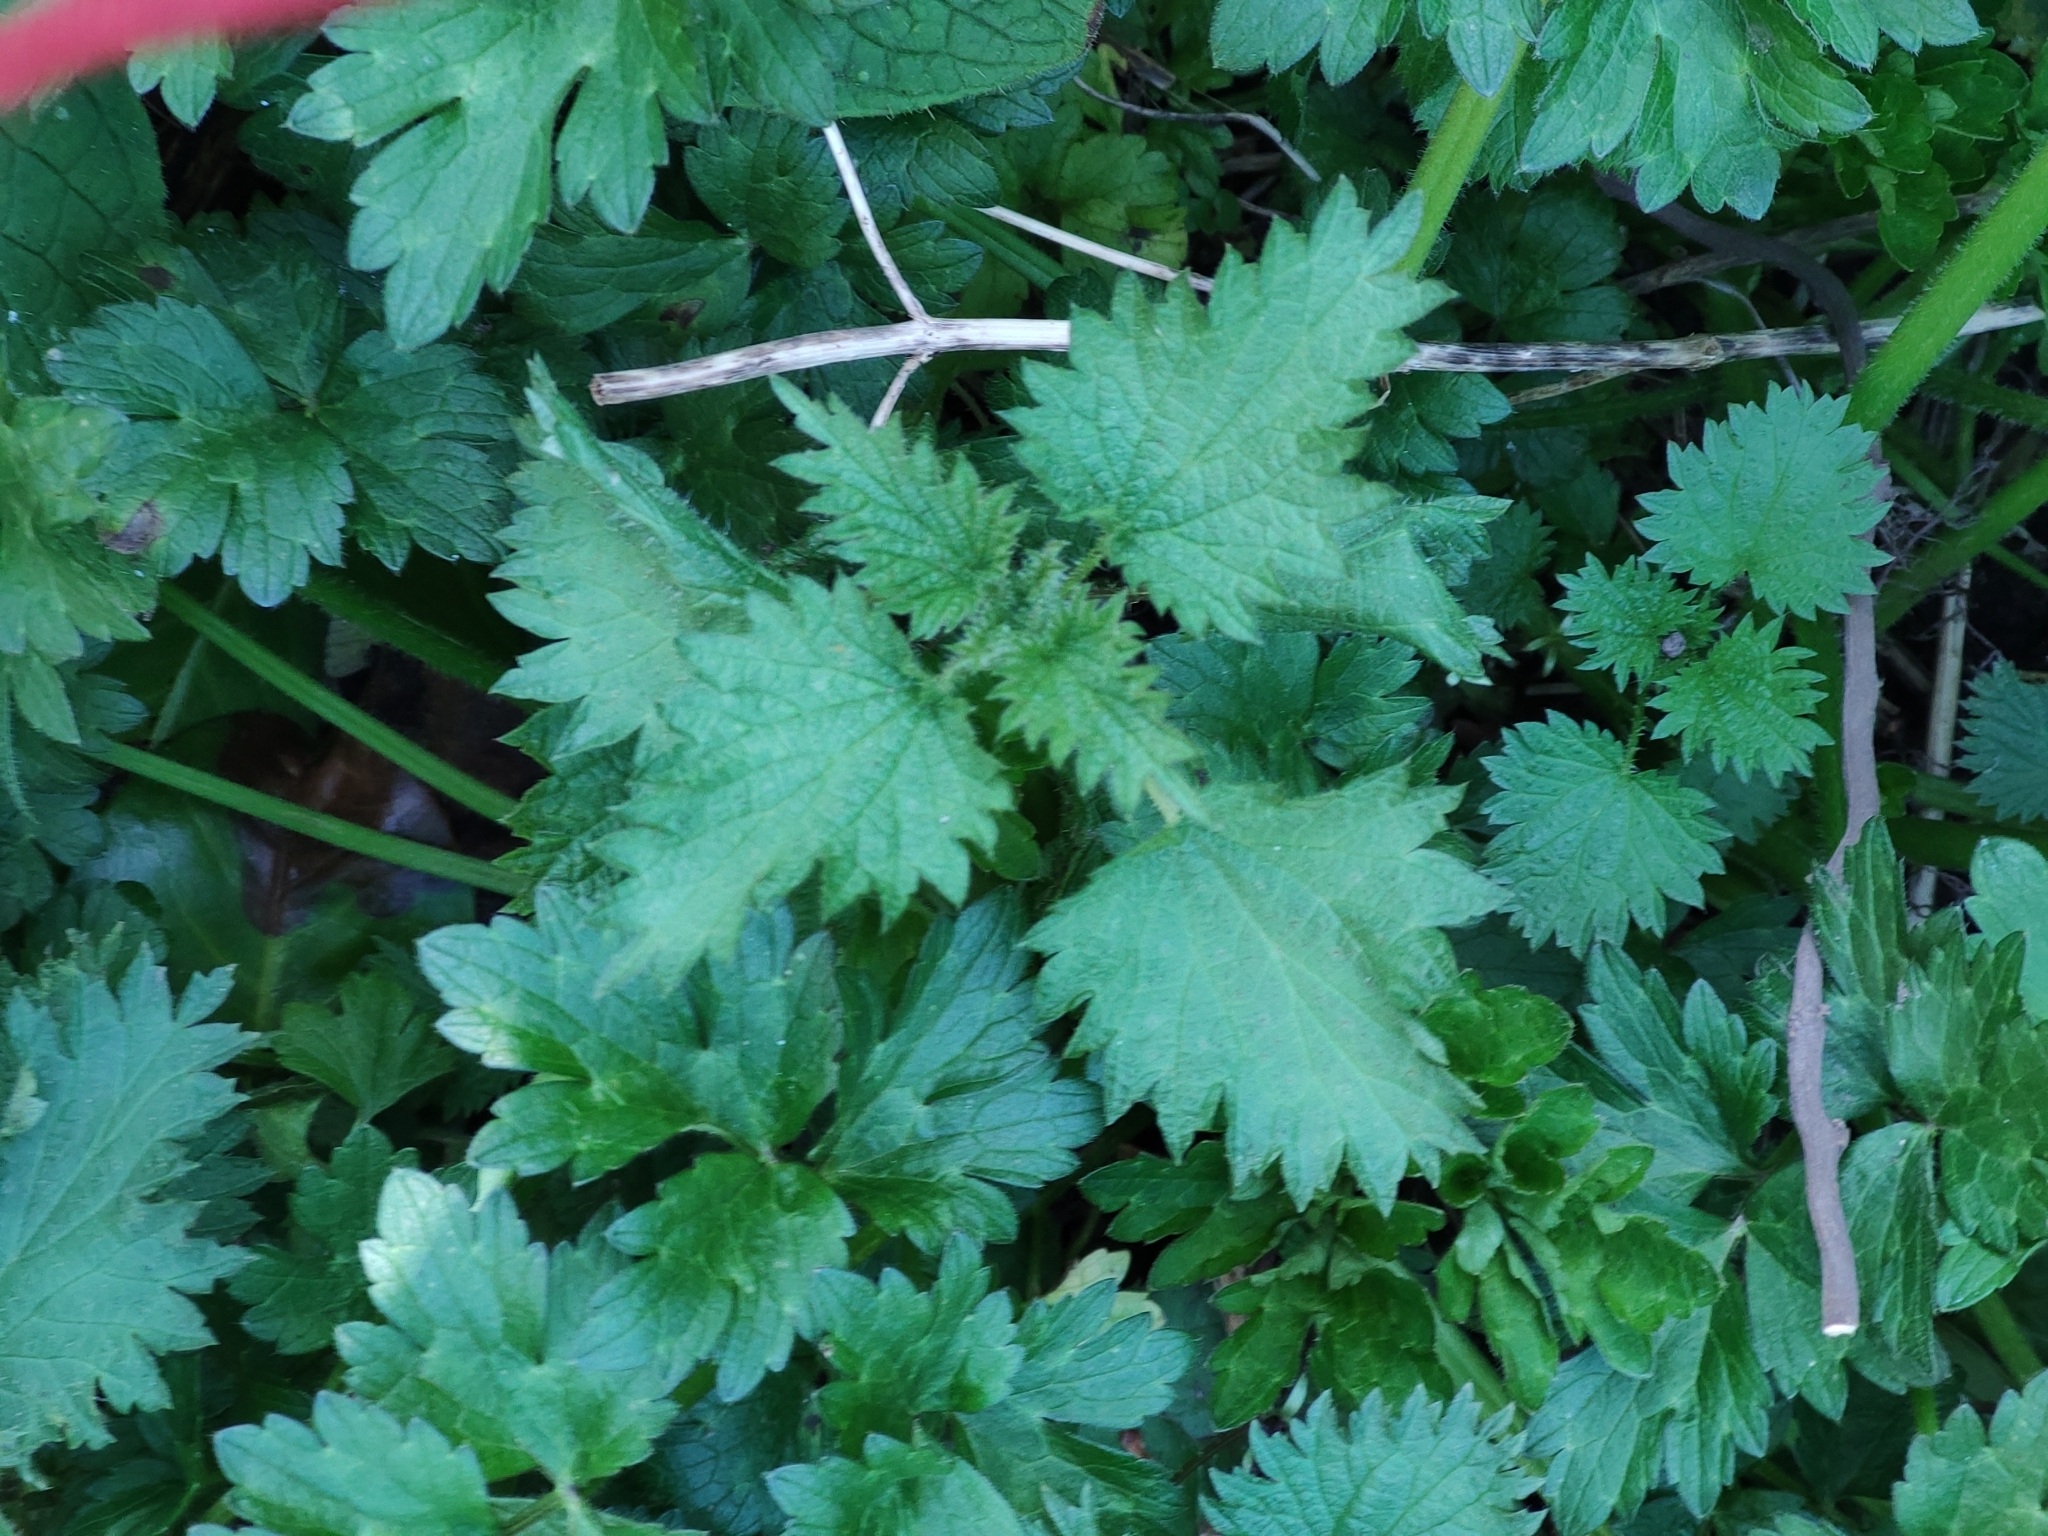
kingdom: Plantae
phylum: Tracheophyta
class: Magnoliopsida
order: Rosales
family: Urticaceae
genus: Urtica
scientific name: Urtica dioica
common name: Common nettle
